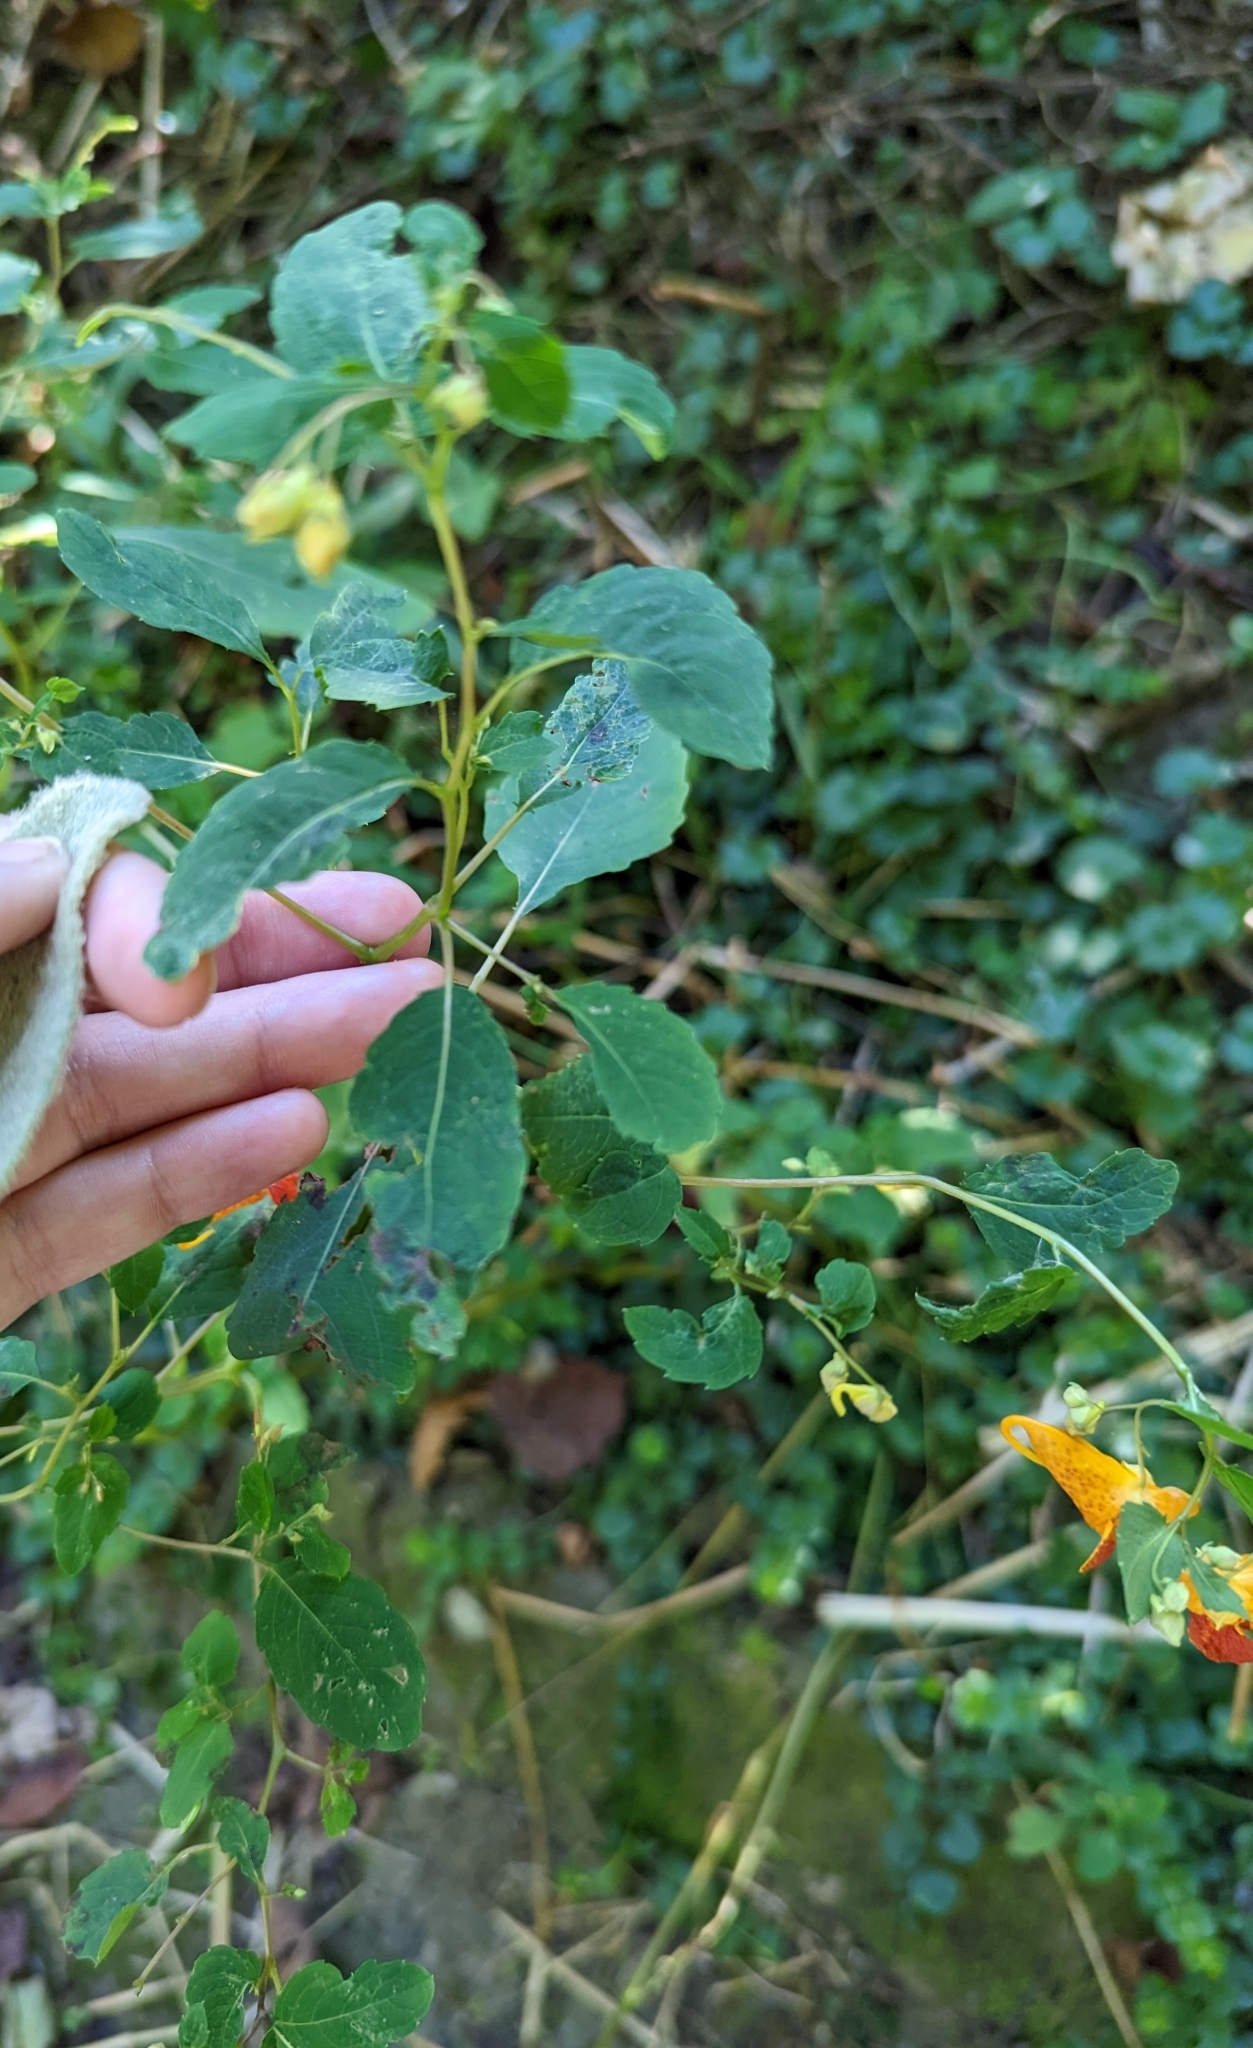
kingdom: Plantae
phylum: Tracheophyta
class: Magnoliopsida
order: Ericales
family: Balsaminaceae
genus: Impatiens
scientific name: Impatiens capensis
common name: Orange balsam
